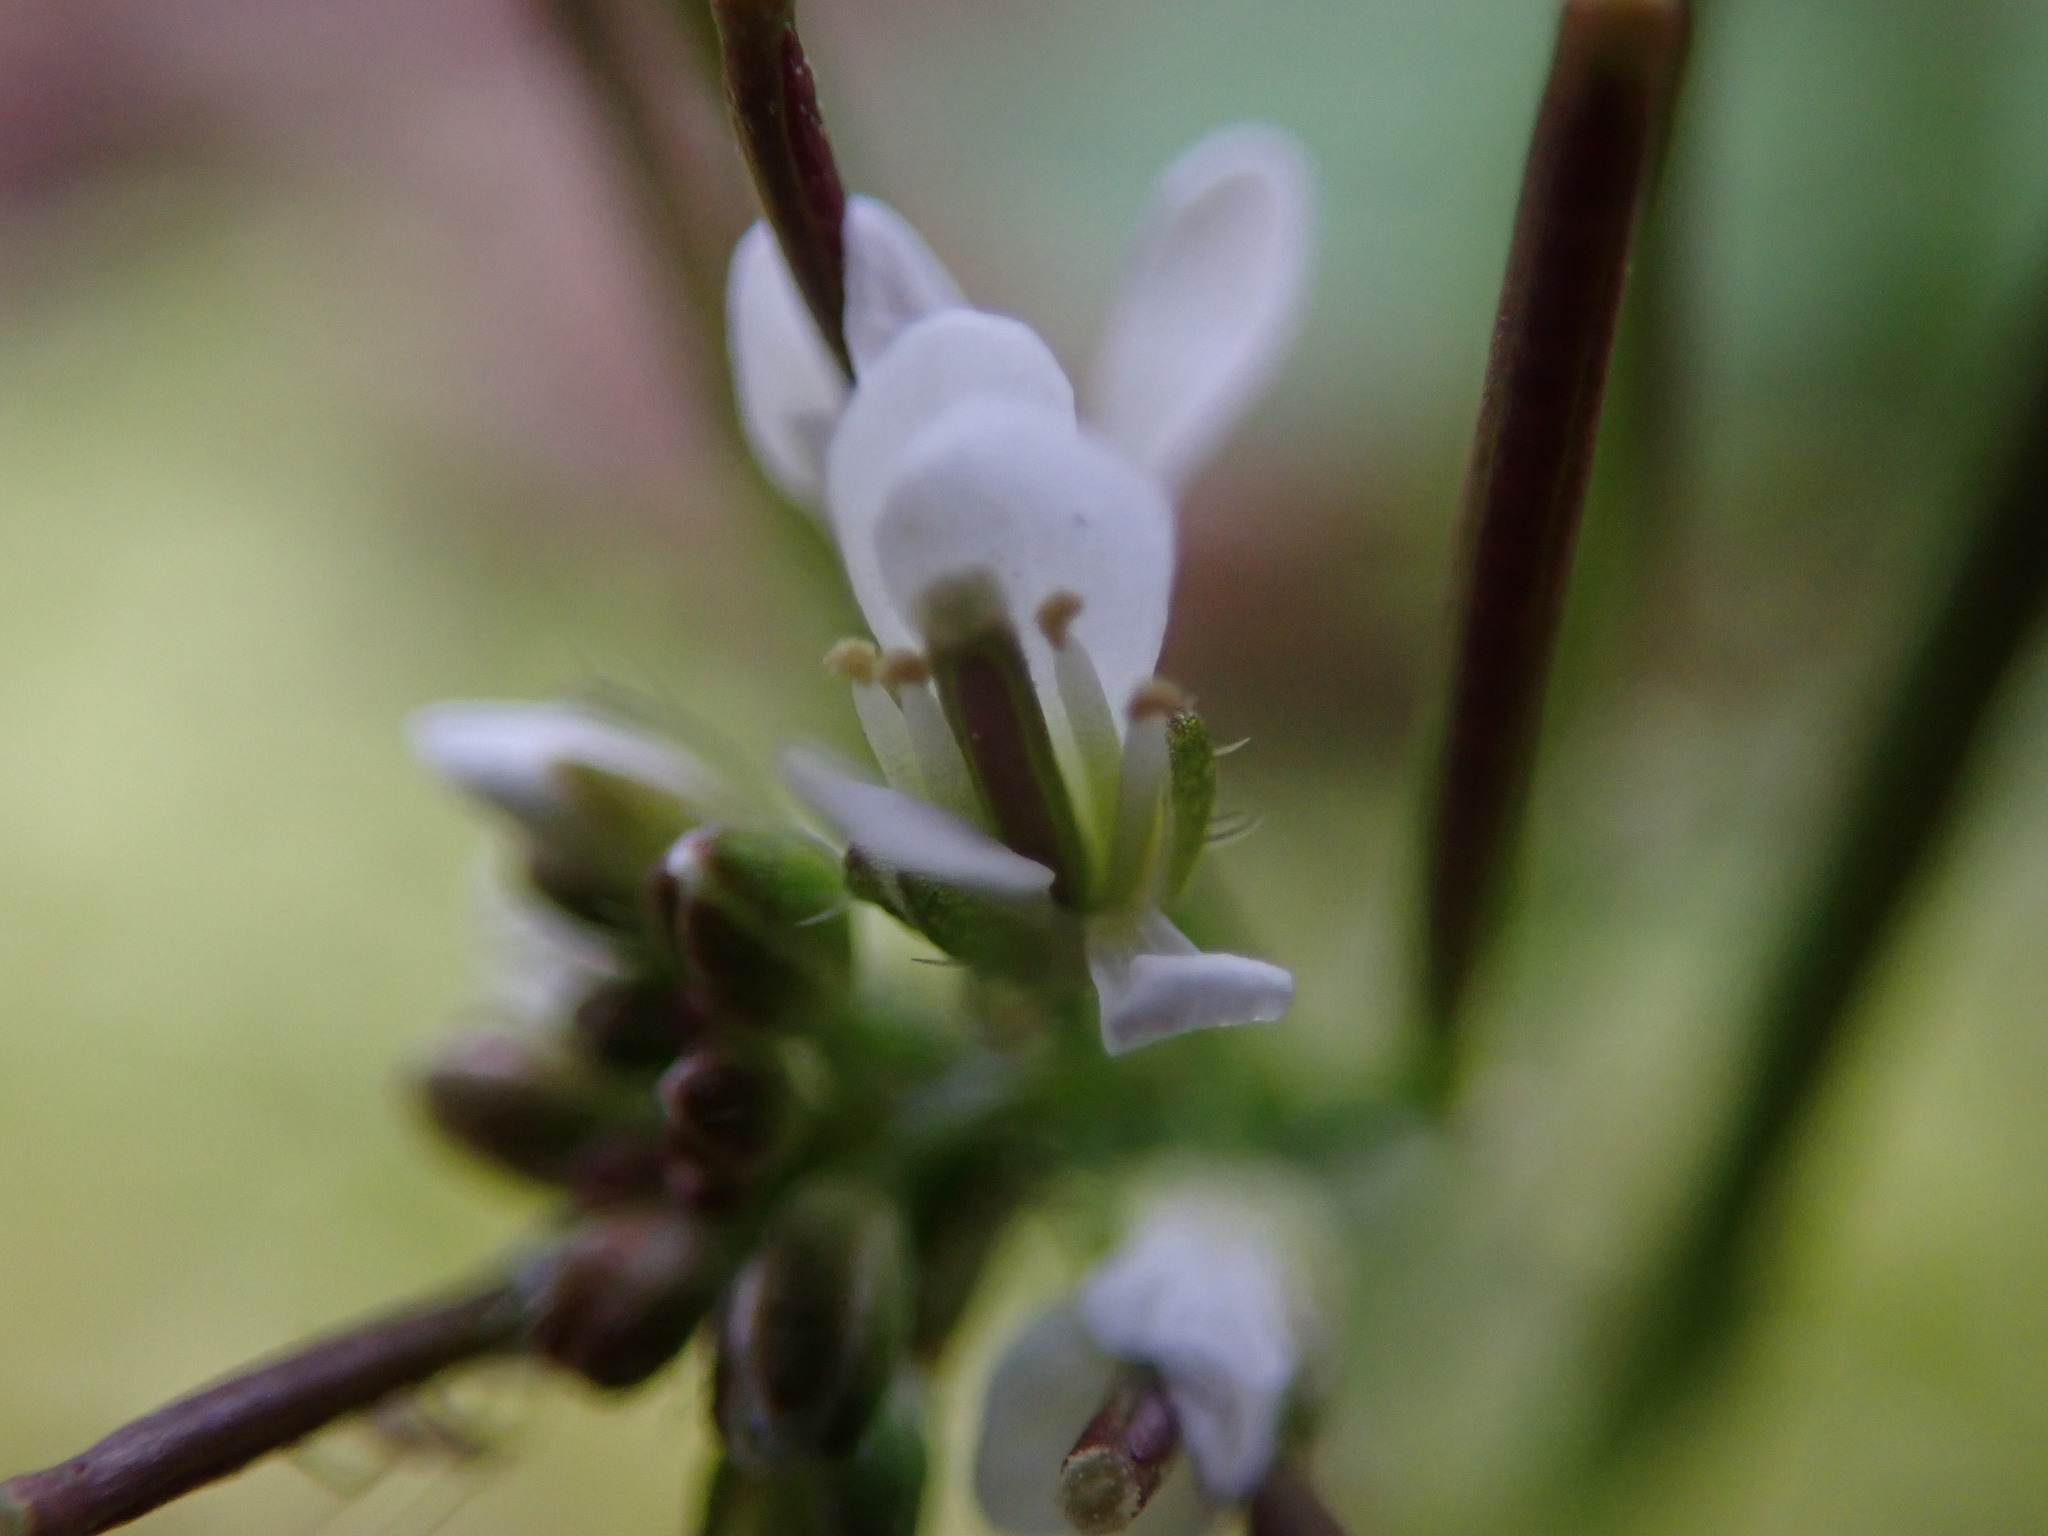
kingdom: Plantae
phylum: Tracheophyta
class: Magnoliopsida
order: Brassicales
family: Brassicaceae
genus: Cardamine
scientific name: Cardamine hirsuta
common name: Hairy bittercress
